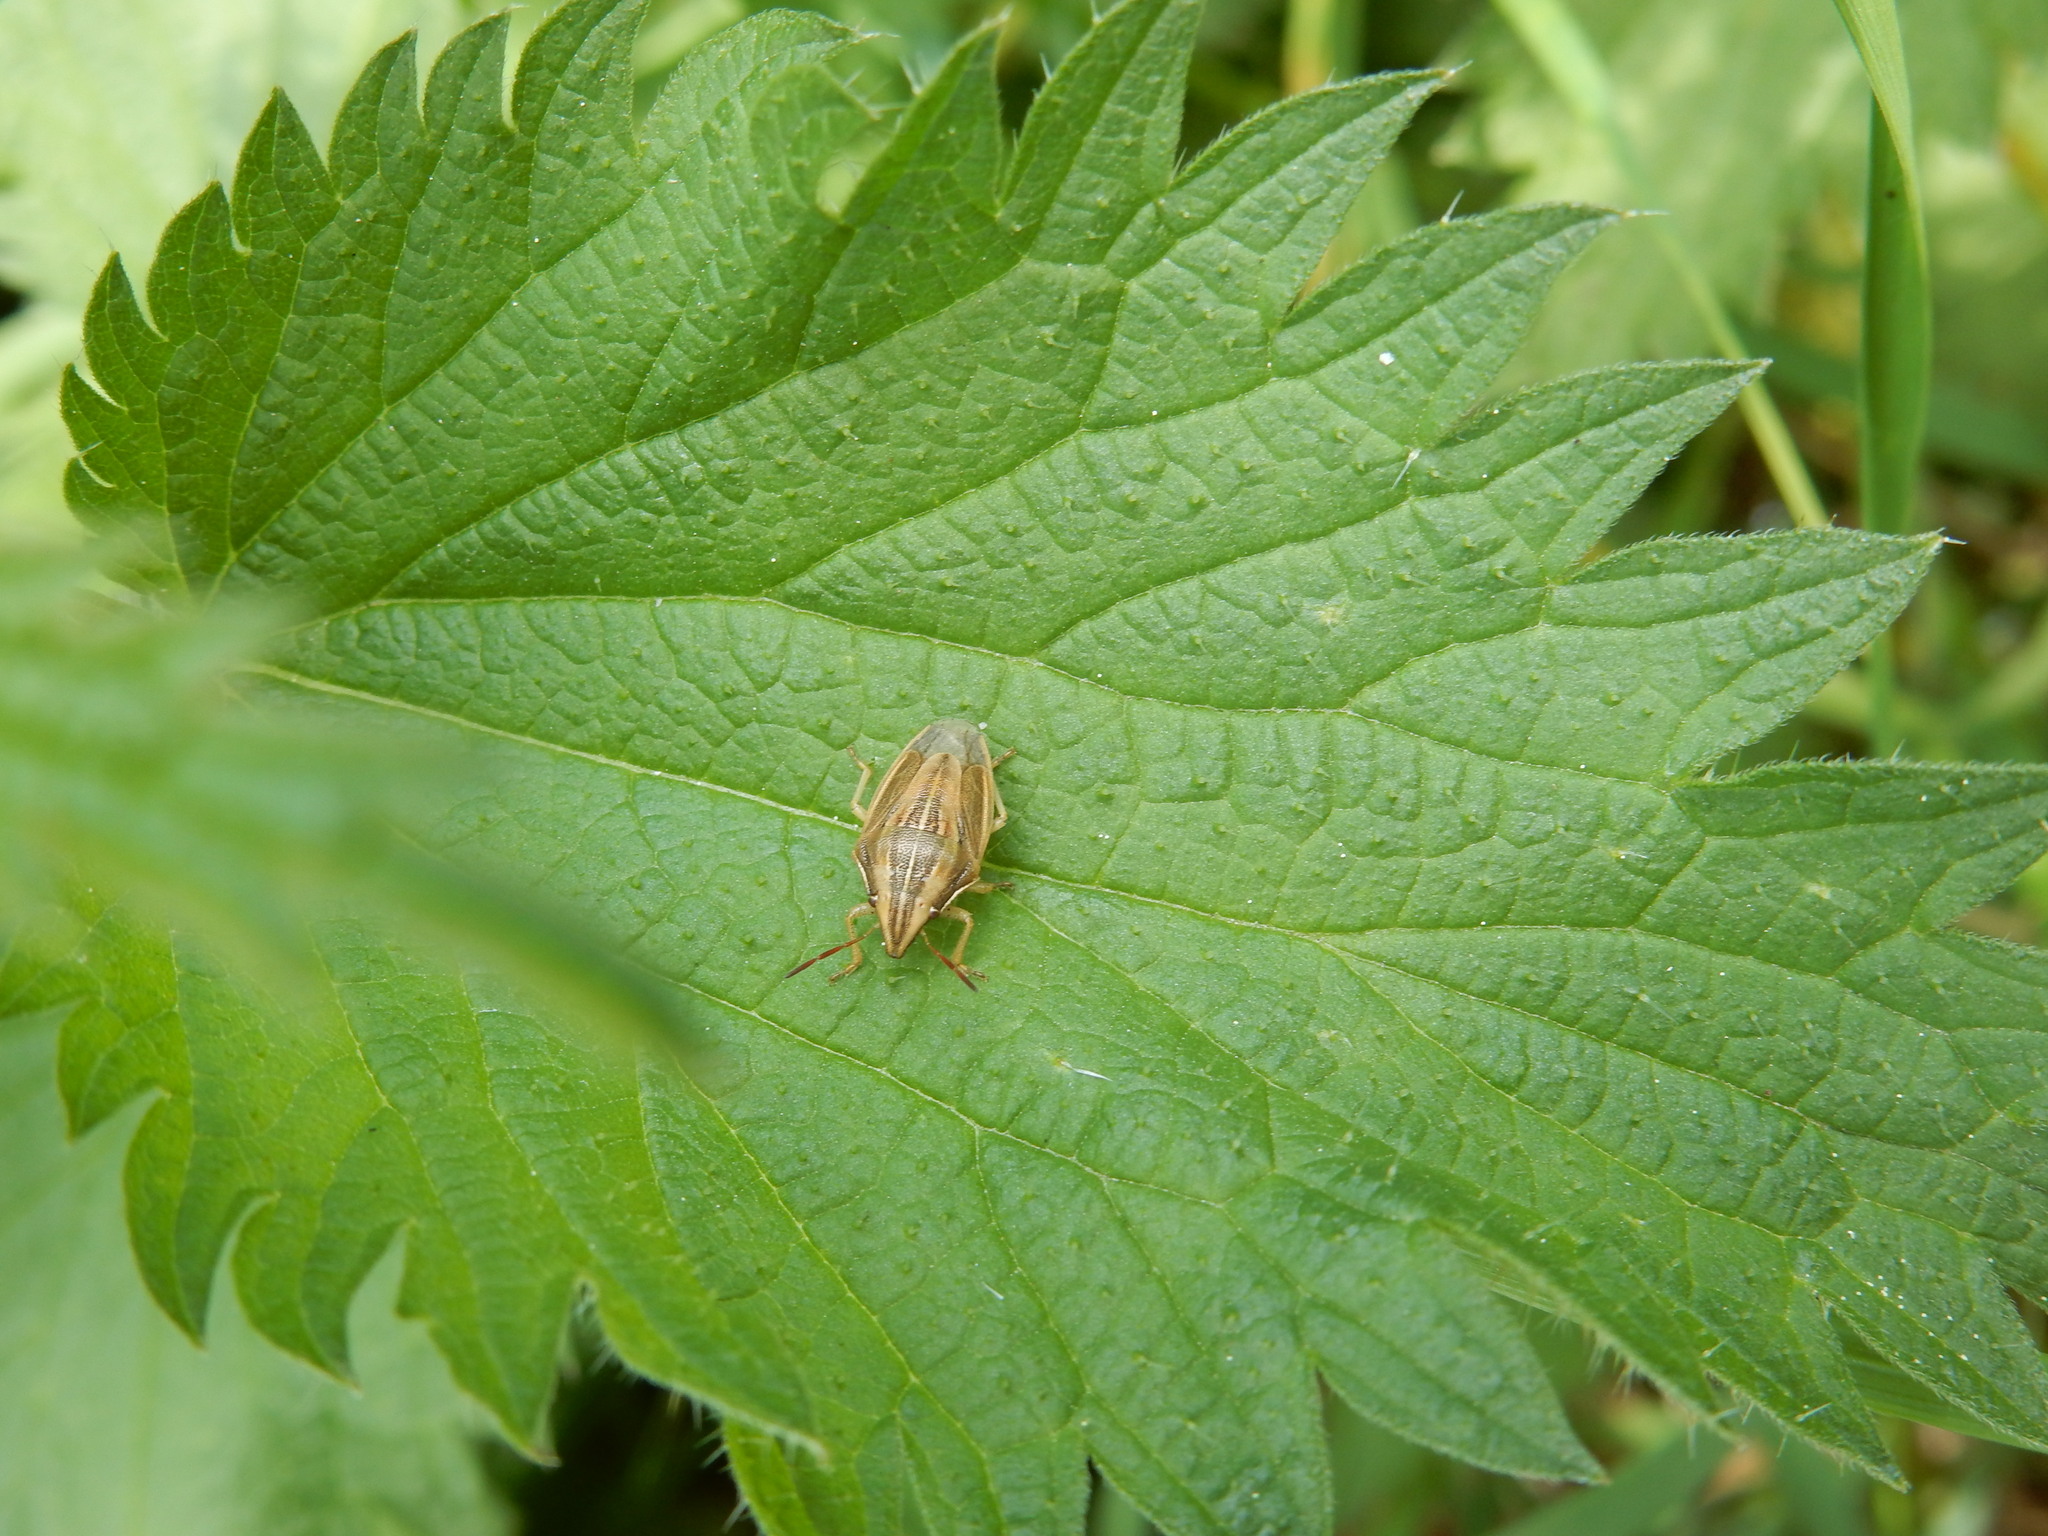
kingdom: Animalia
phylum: Arthropoda
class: Insecta
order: Hemiptera
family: Pentatomidae
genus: Aelia
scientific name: Aelia acuminata
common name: Bishop's mitre
